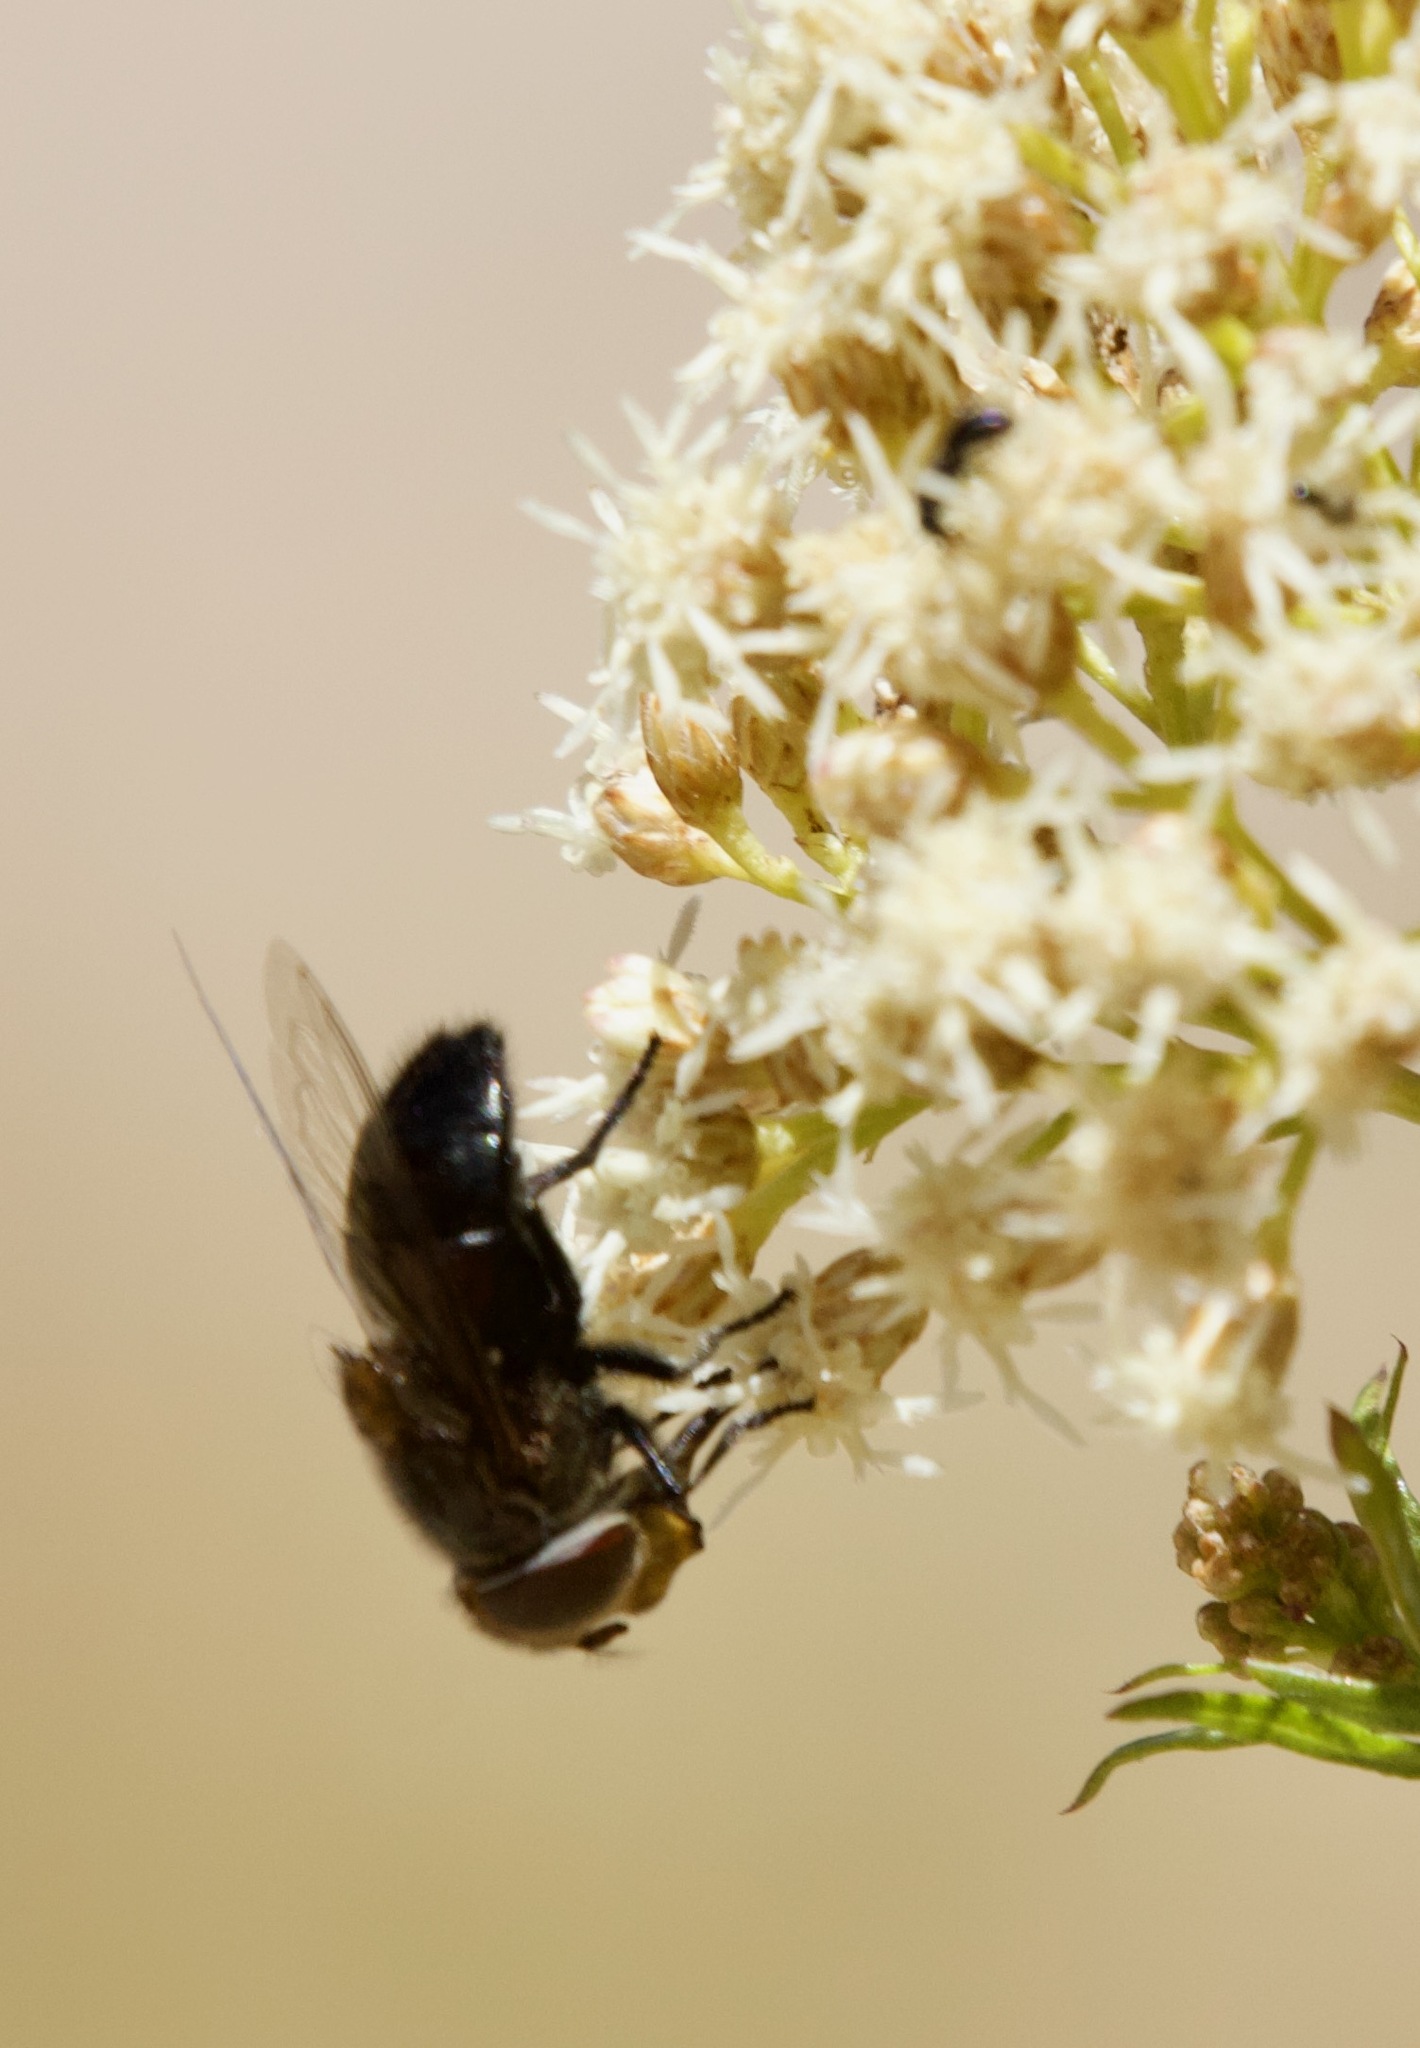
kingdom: Animalia
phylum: Arthropoda
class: Insecta
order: Diptera
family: Syrphidae
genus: Copestylum
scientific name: Copestylum scutellatum
